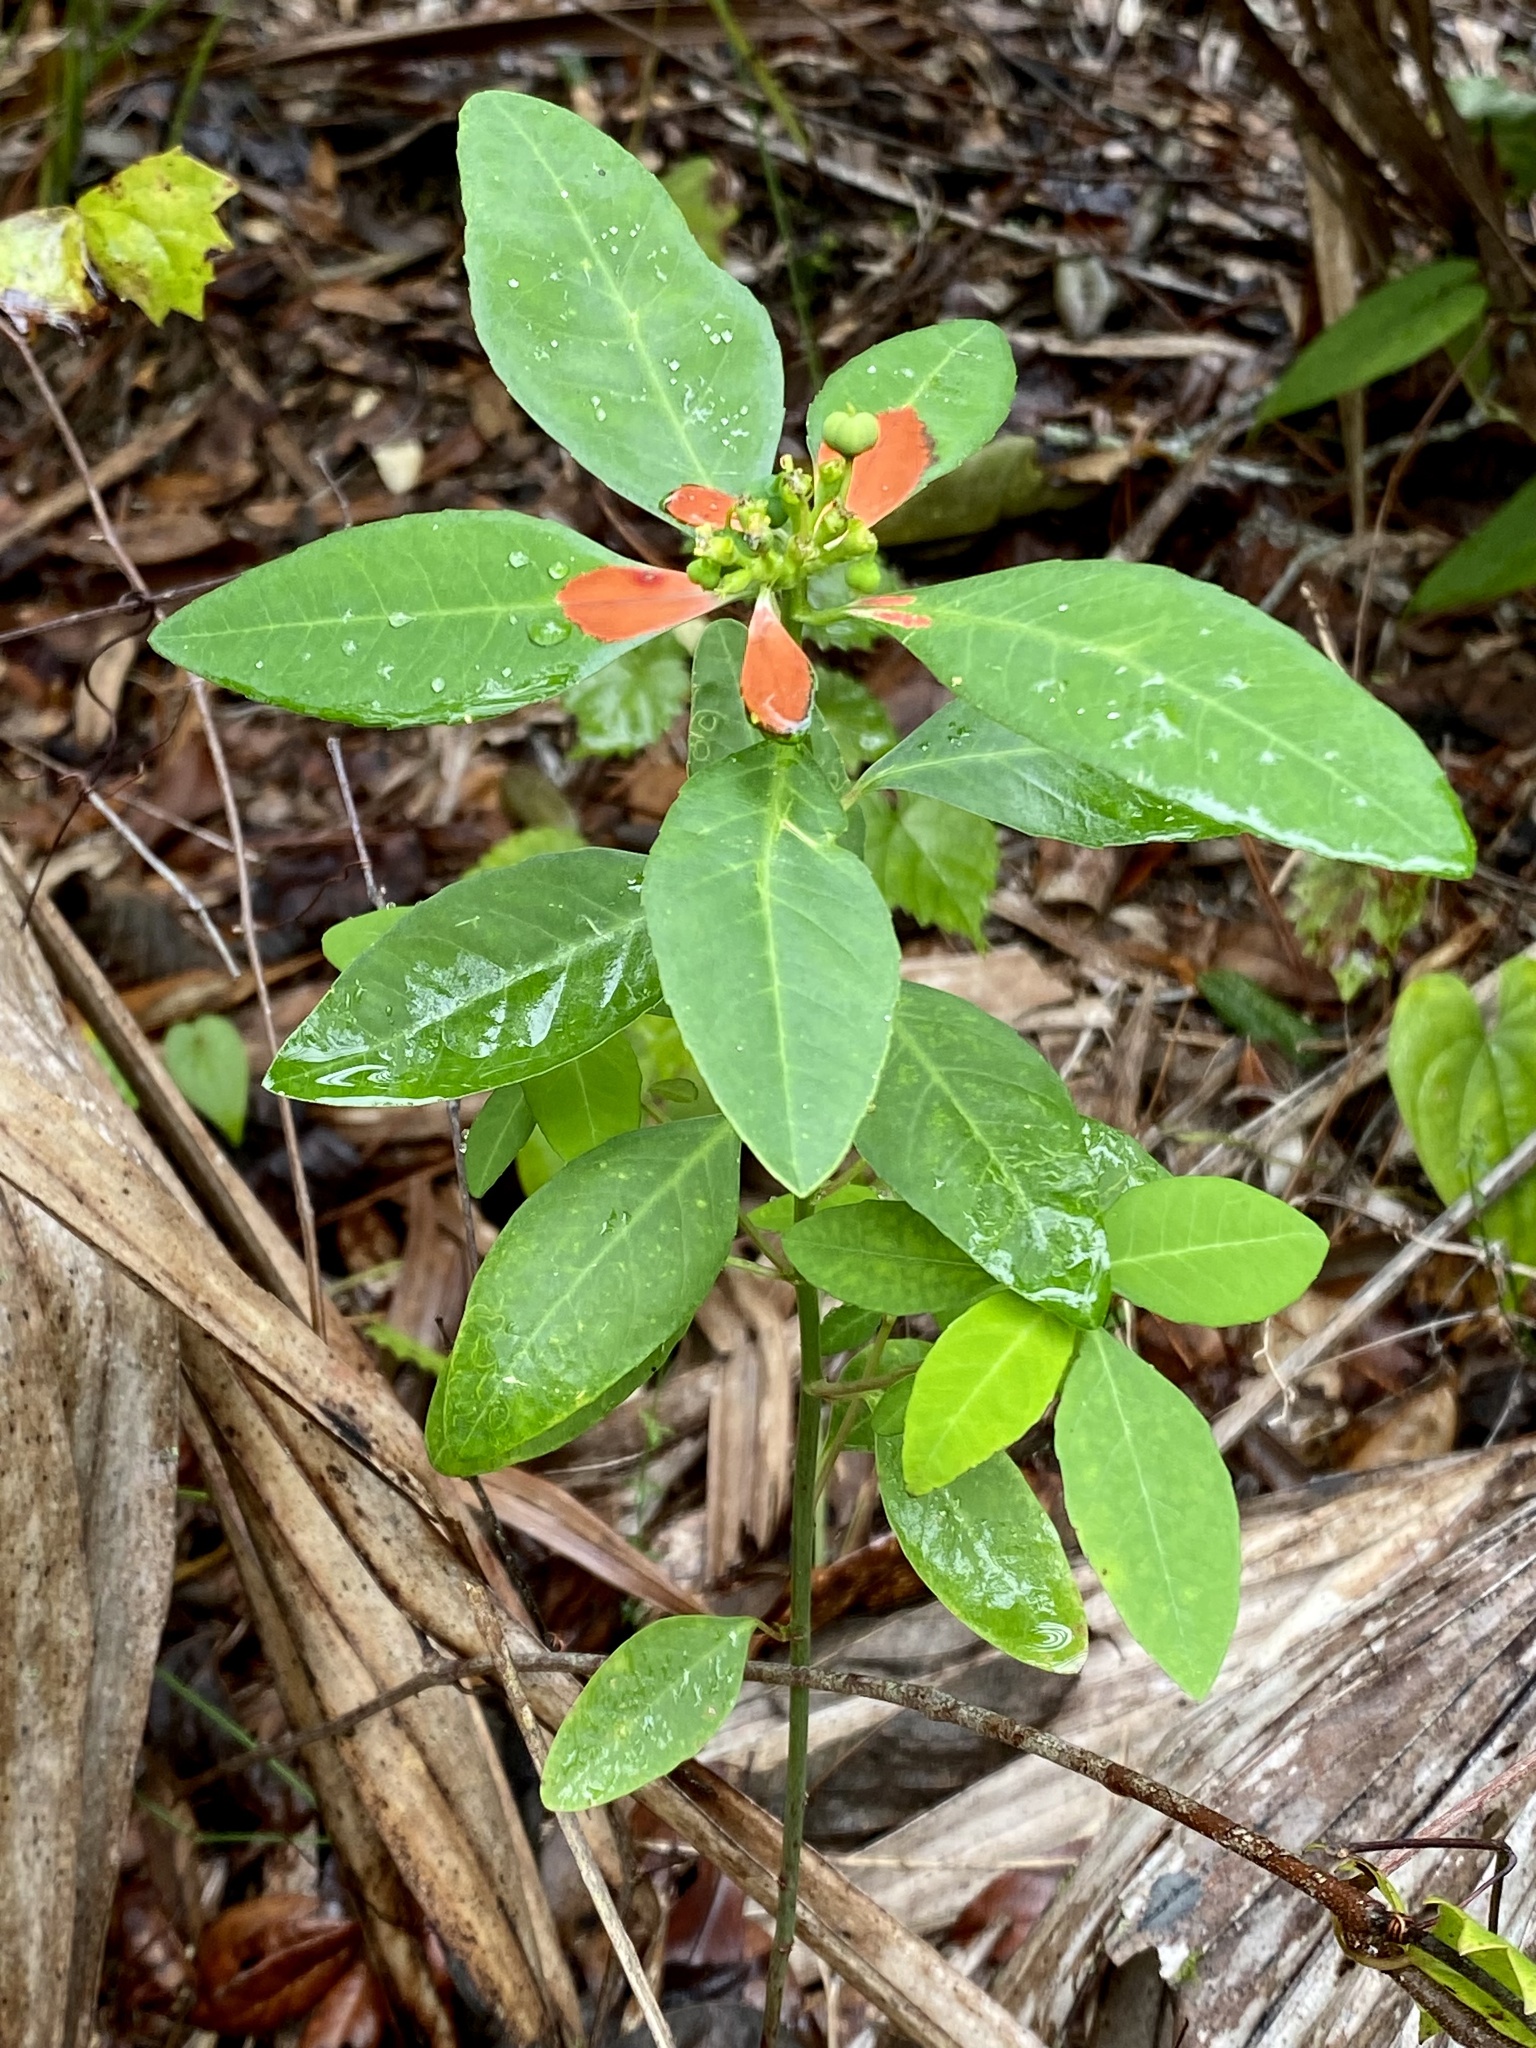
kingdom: Plantae
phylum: Tracheophyta
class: Magnoliopsida
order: Malpighiales
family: Euphorbiaceae
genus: Euphorbia
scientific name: Euphorbia heterophylla
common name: Mexican fireplant
